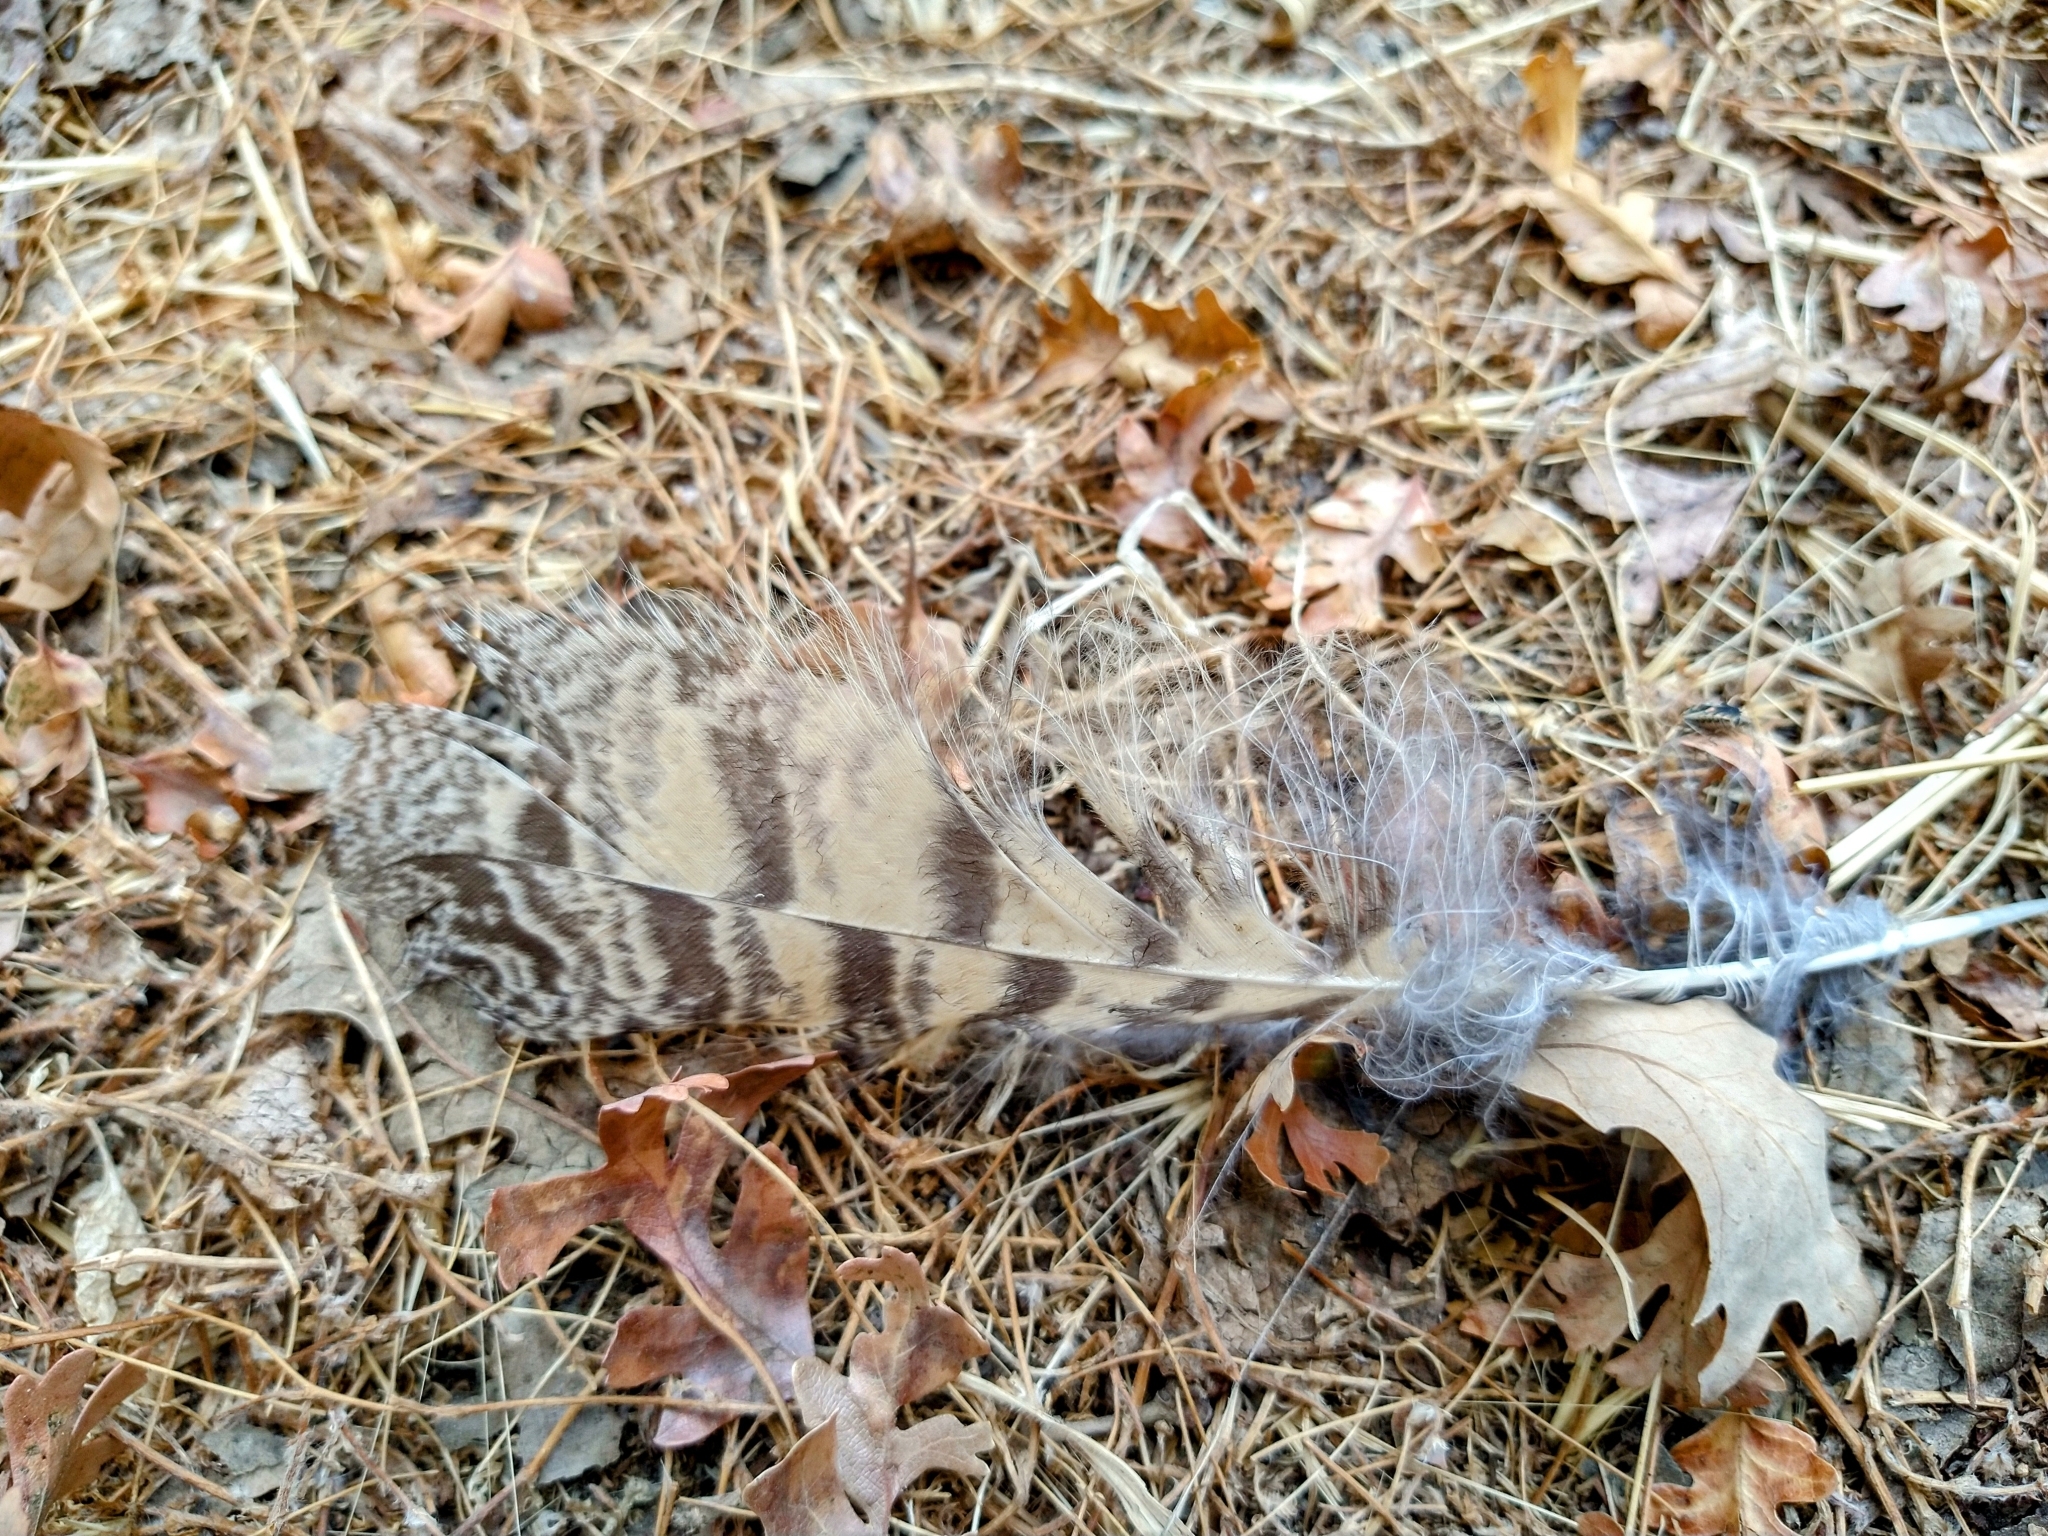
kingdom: Animalia
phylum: Chordata
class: Aves
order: Strigiformes
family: Strigidae
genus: Bubo
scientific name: Bubo virginianus
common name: Great horned owl
